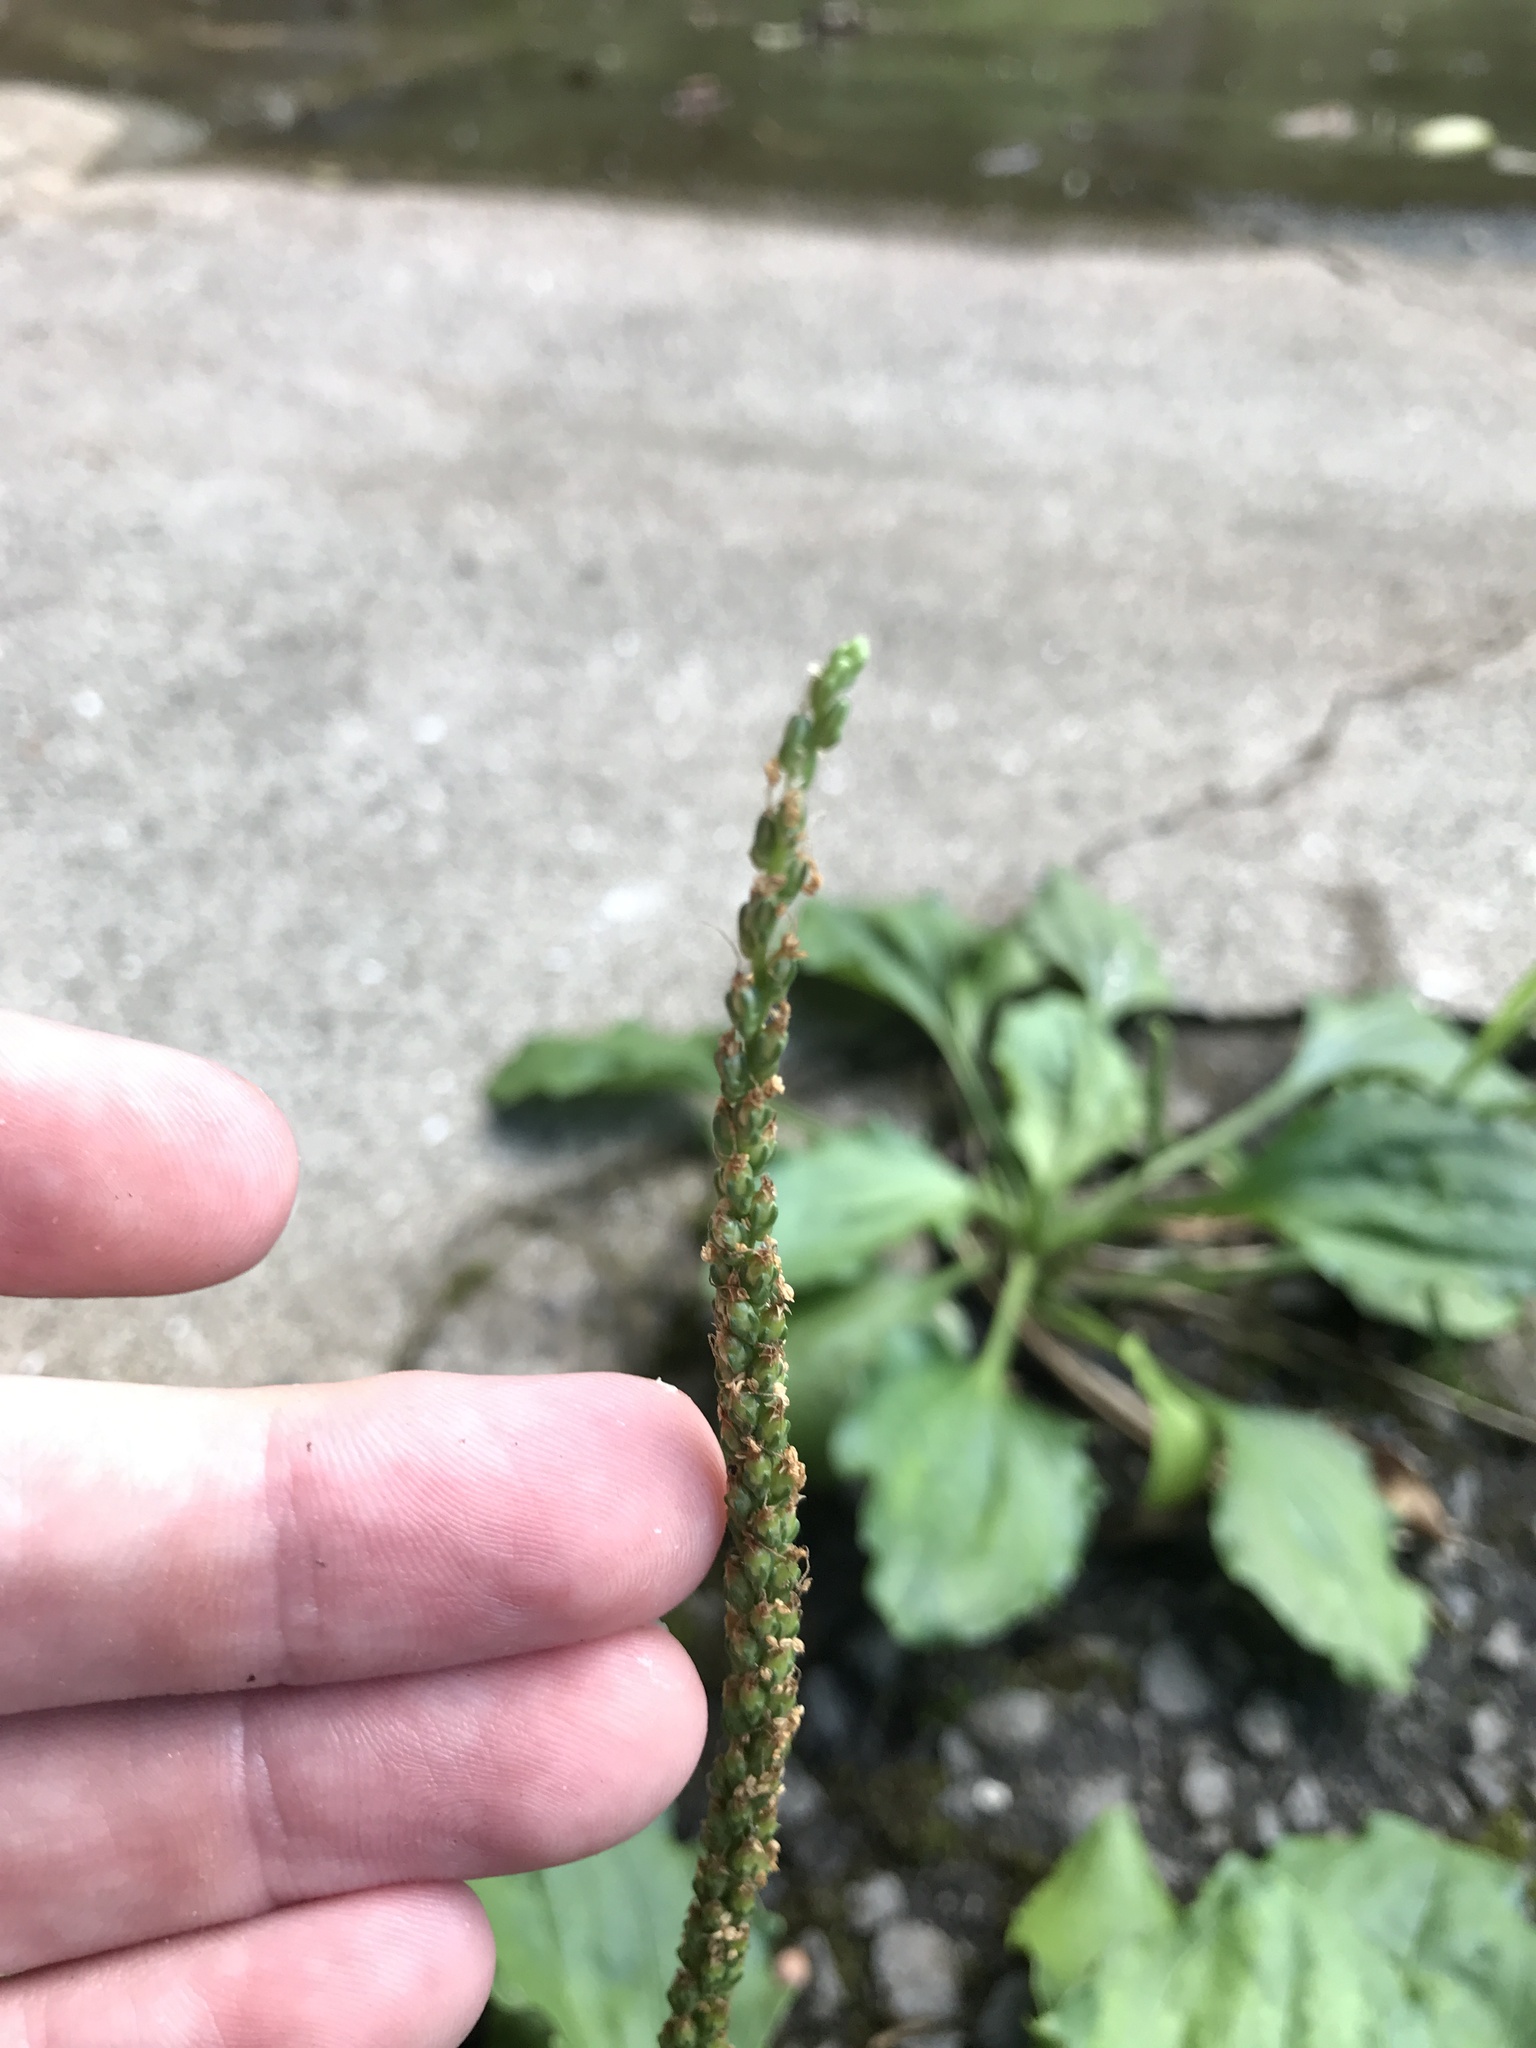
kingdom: Plantae
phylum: Tracheophyta
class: Magnoliopsida
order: Lamiales
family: Plantaginaceae
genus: Plantago
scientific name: Plantago asiatica
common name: Psyllium
